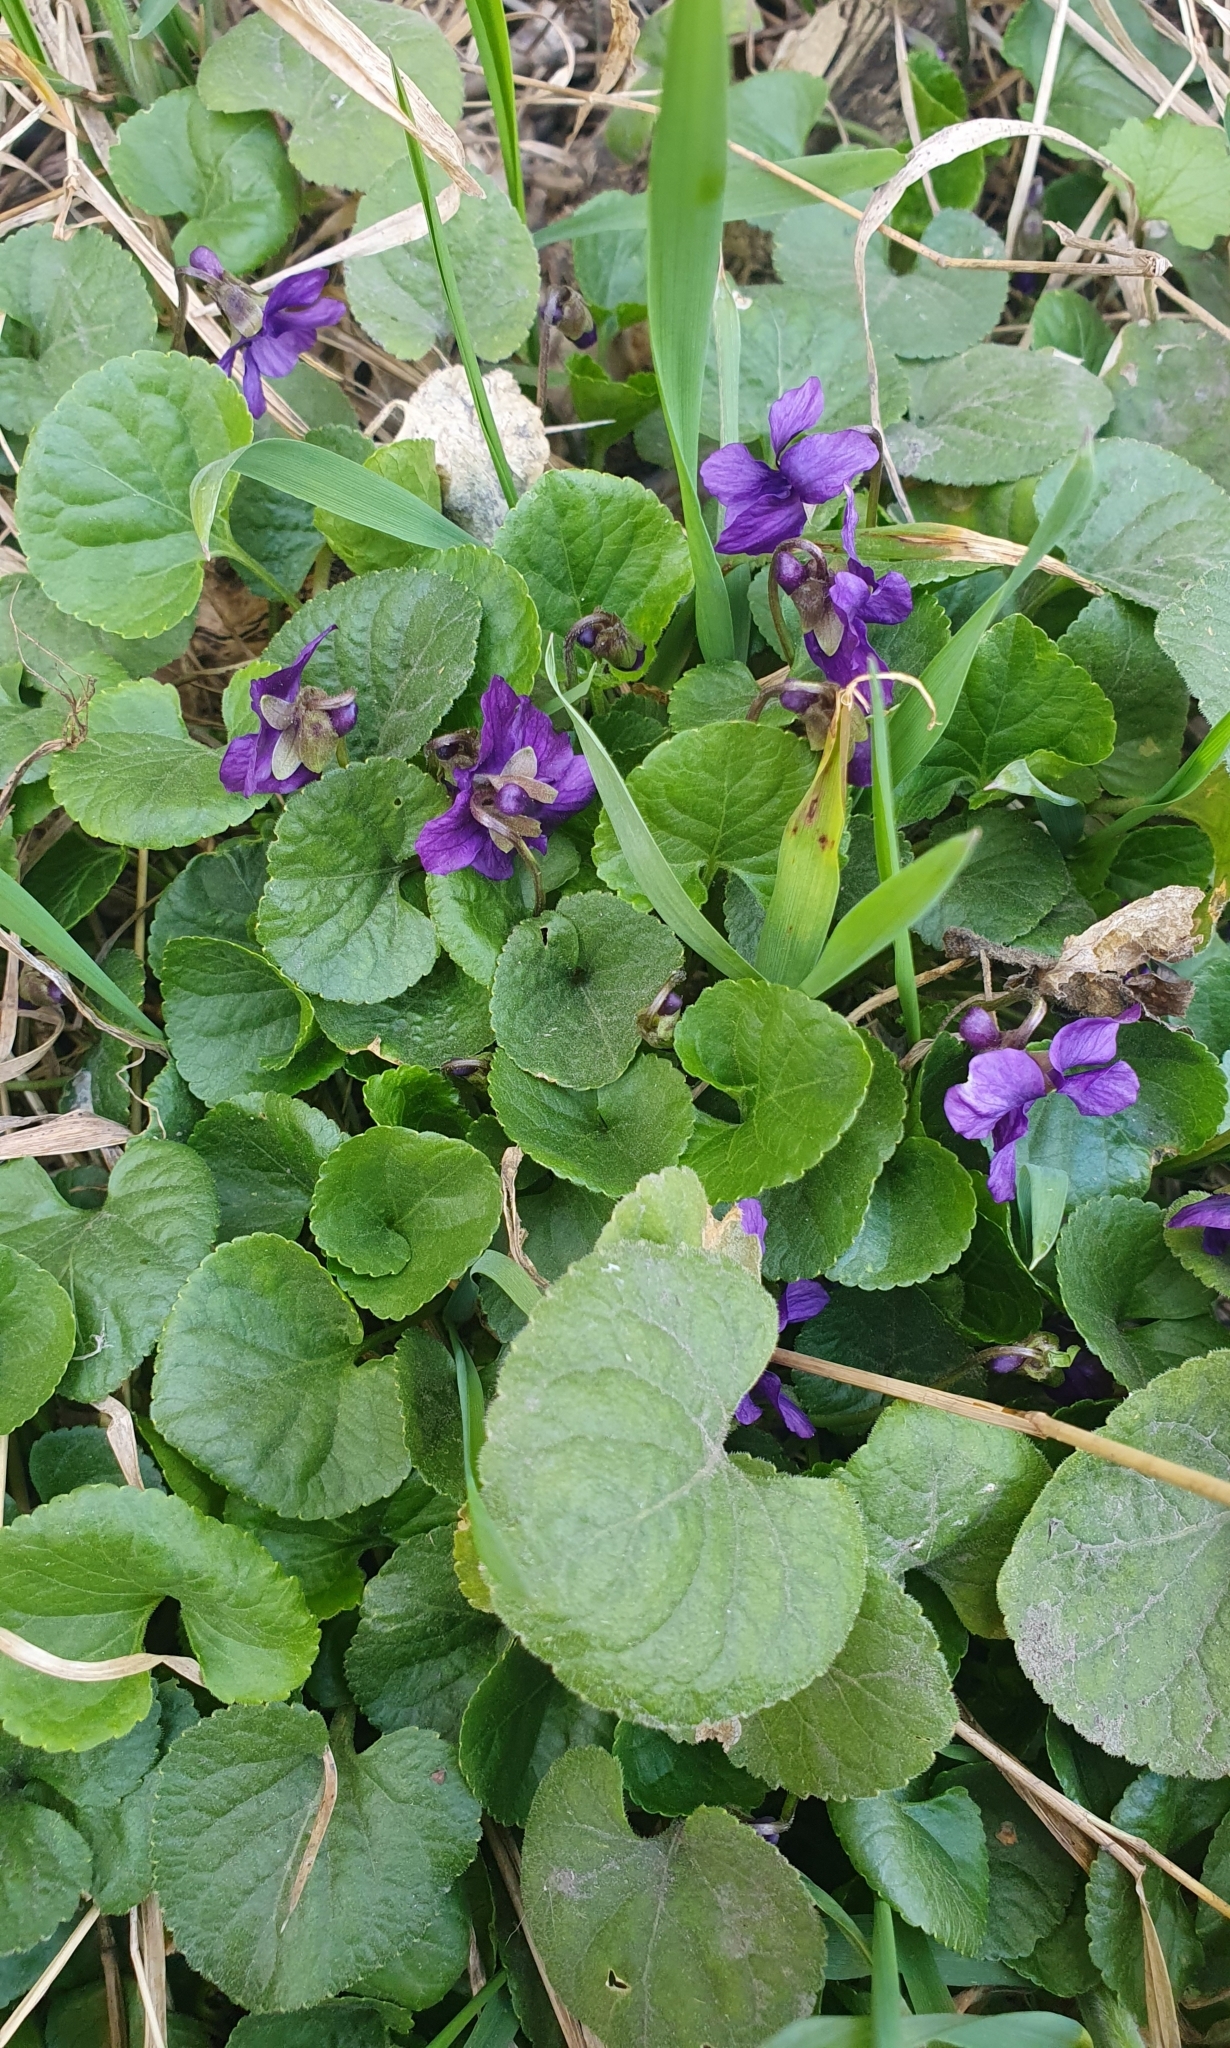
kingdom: Plantae
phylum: Tracheophyta
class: Magnoliopsida
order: Malpighiales
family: Violaceae
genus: Viola
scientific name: Viola odorata
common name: Sweet violet
